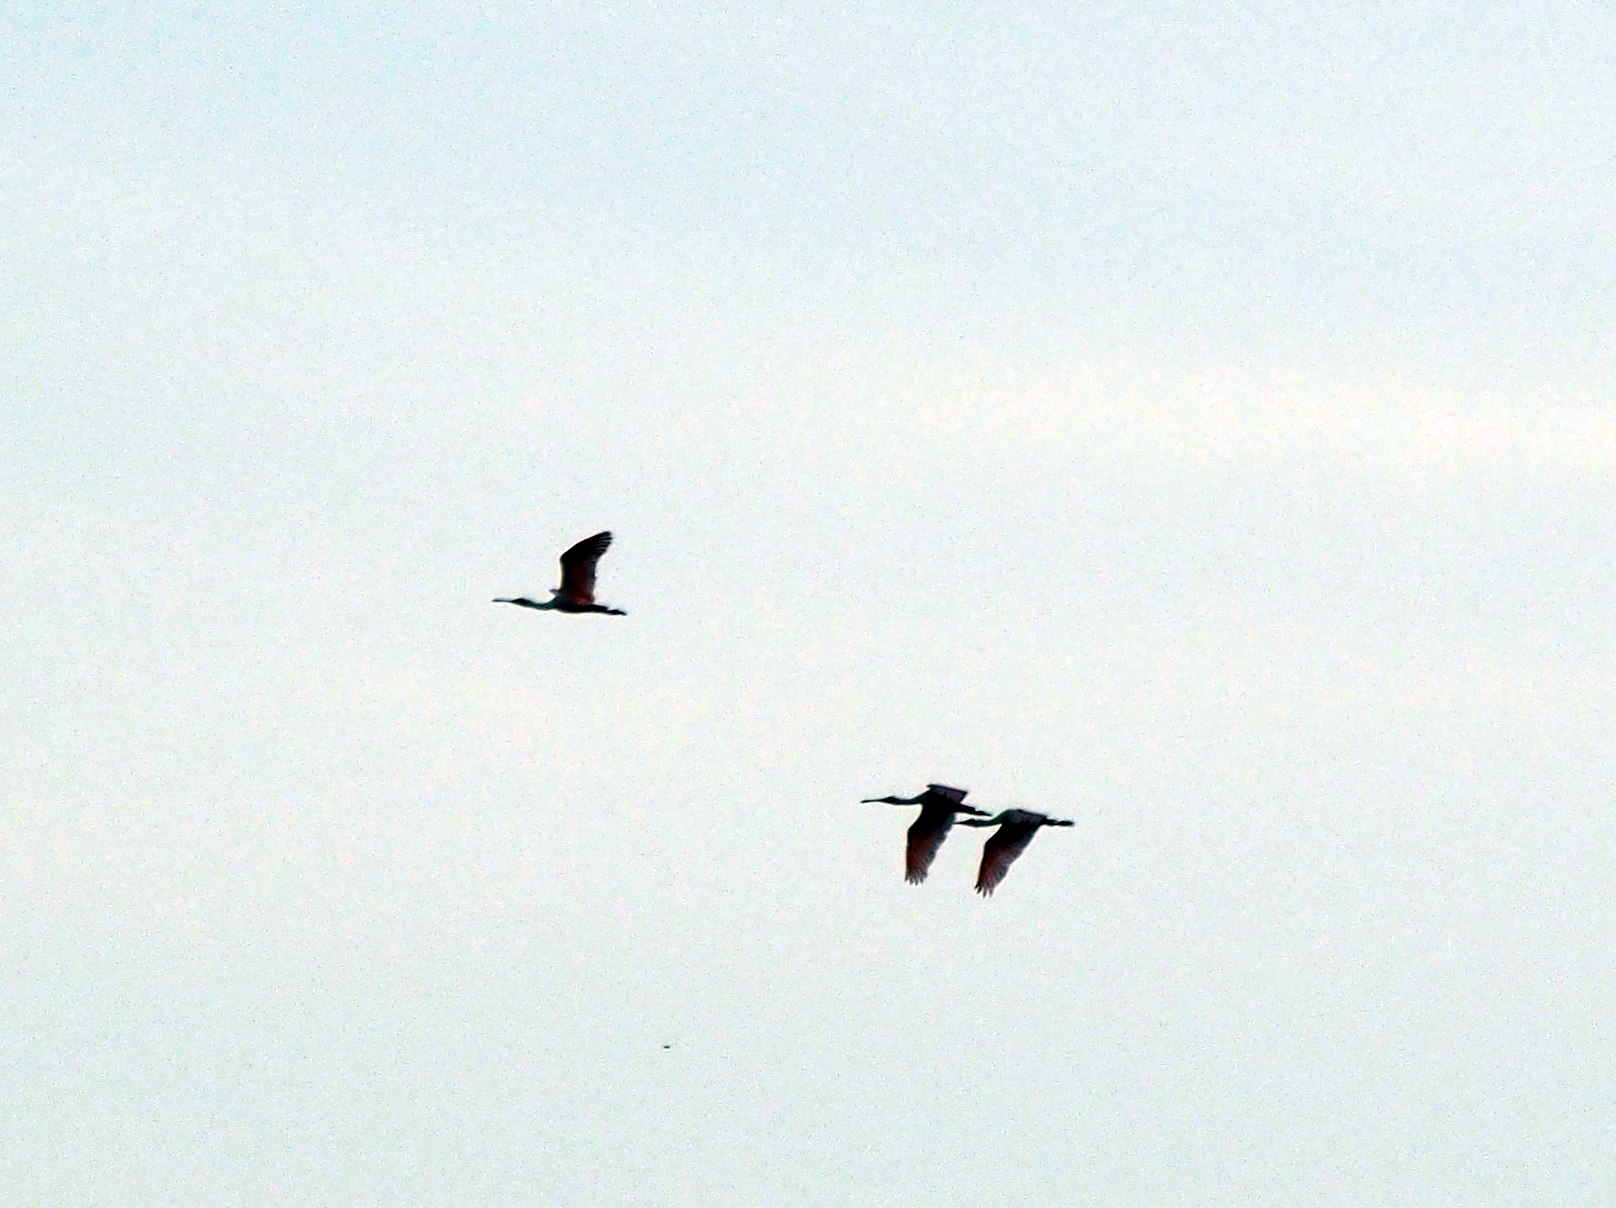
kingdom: Animalia
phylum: Chordata
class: Aves
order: Pelecaniformes
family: Threskiornithidae
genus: Platalea
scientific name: Platalea ajaja
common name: Roseate spoonbill
